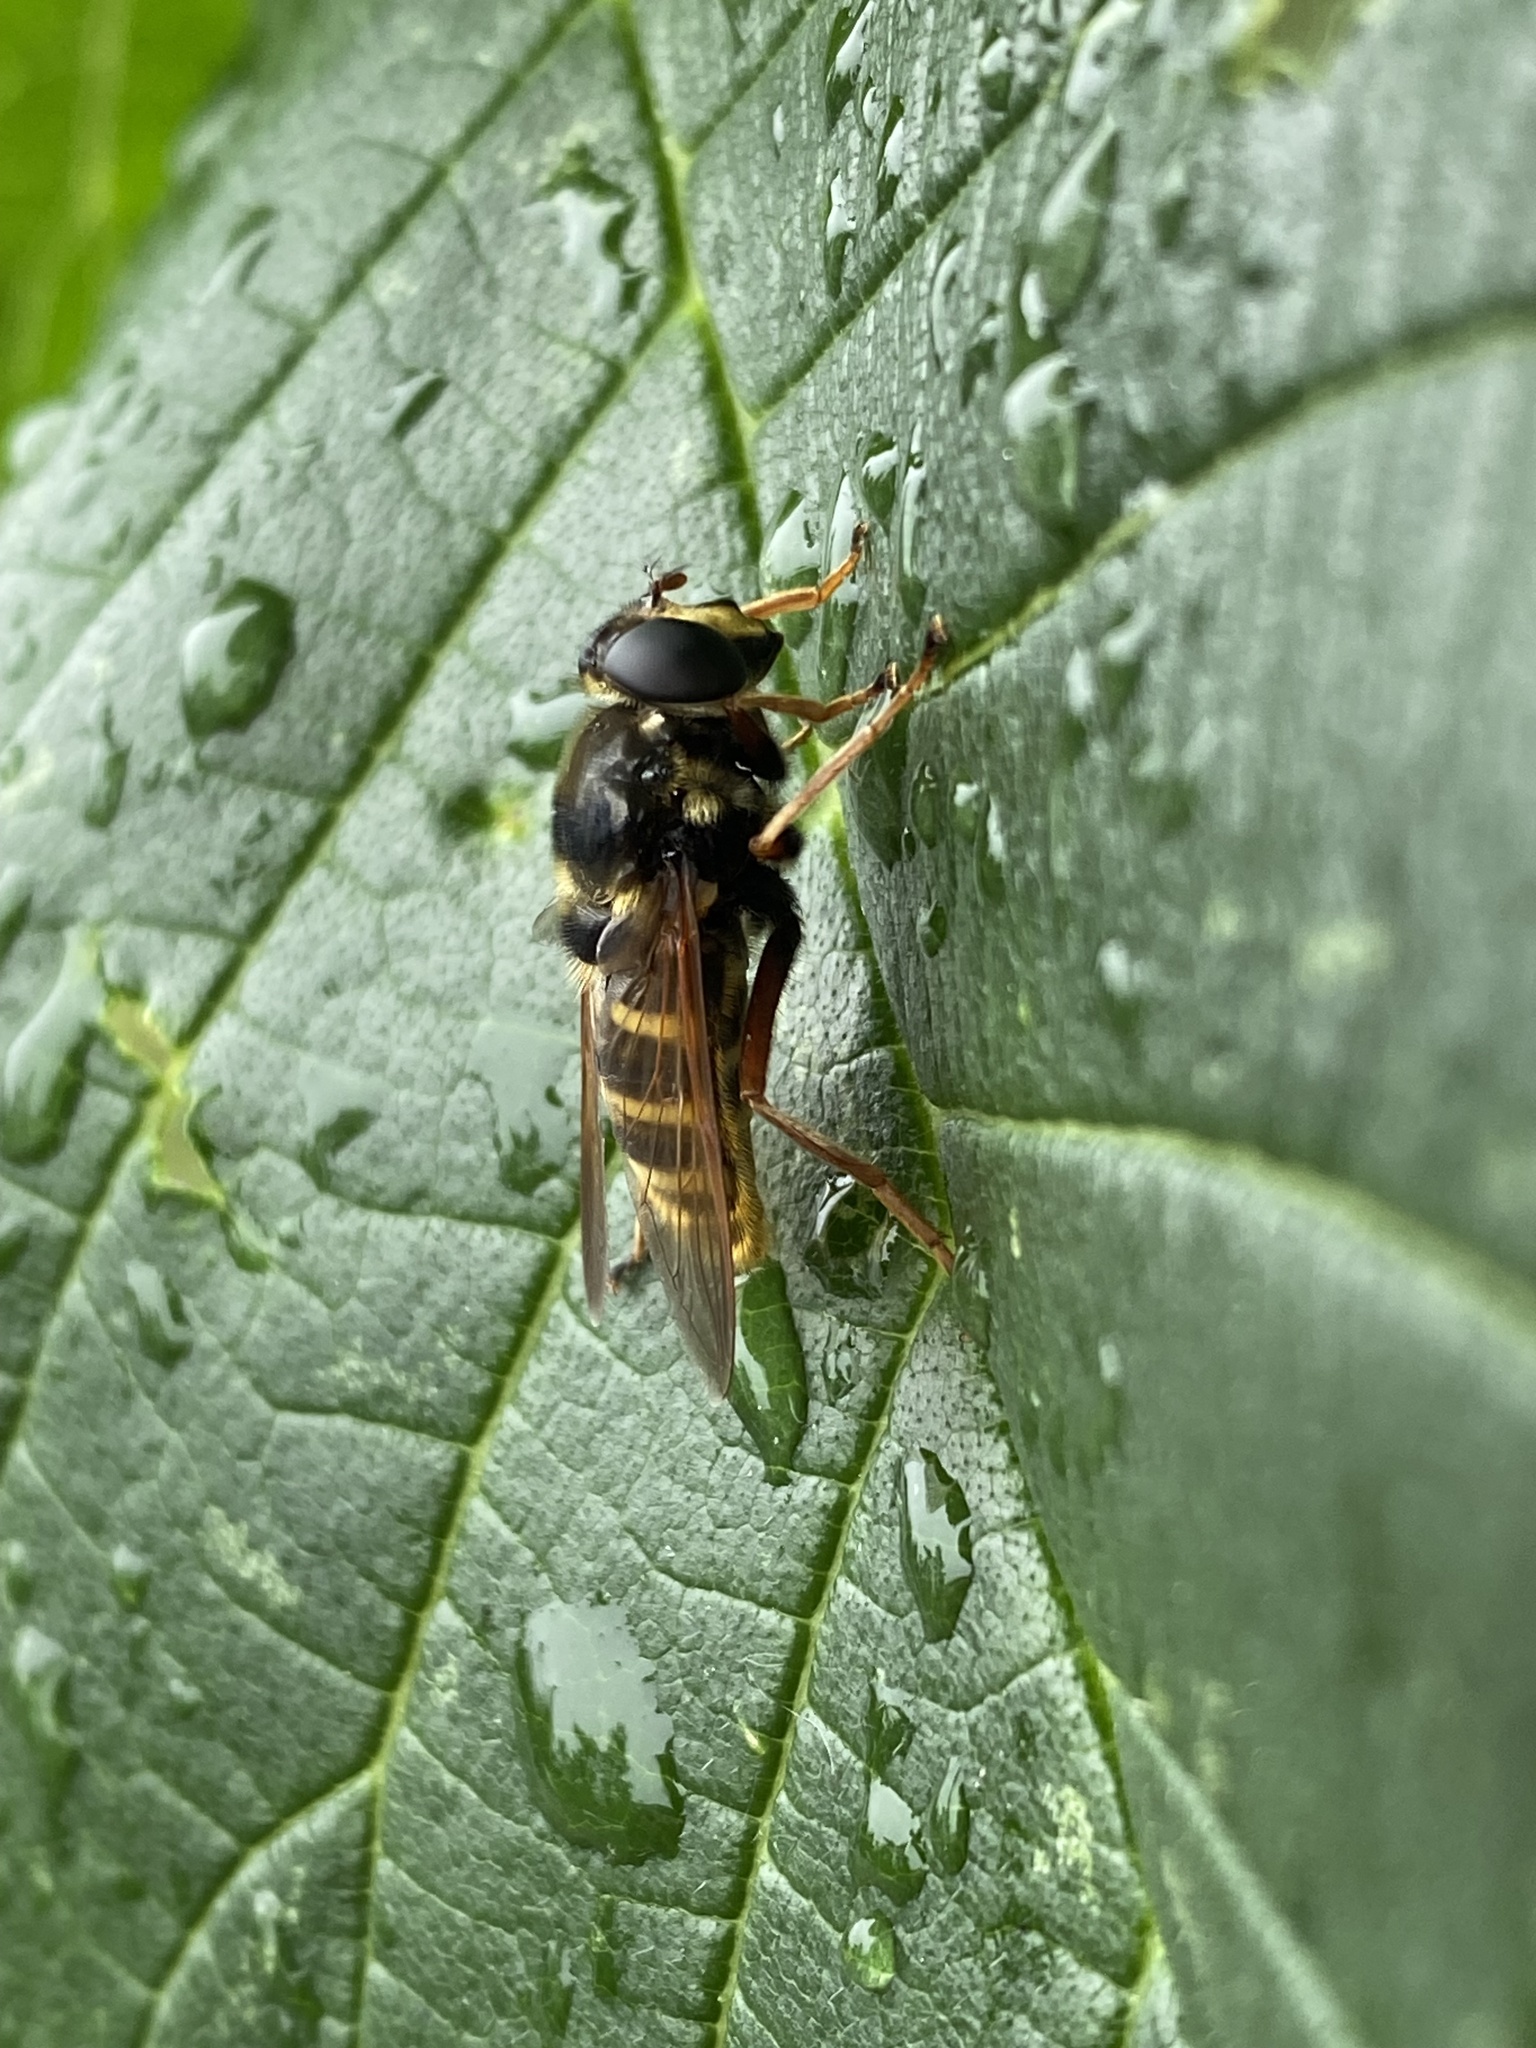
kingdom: Animalia
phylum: Arthropoda
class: Insecta
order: Diptera
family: Syrphidae
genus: Sericomyia
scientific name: Sericomyia silentis
